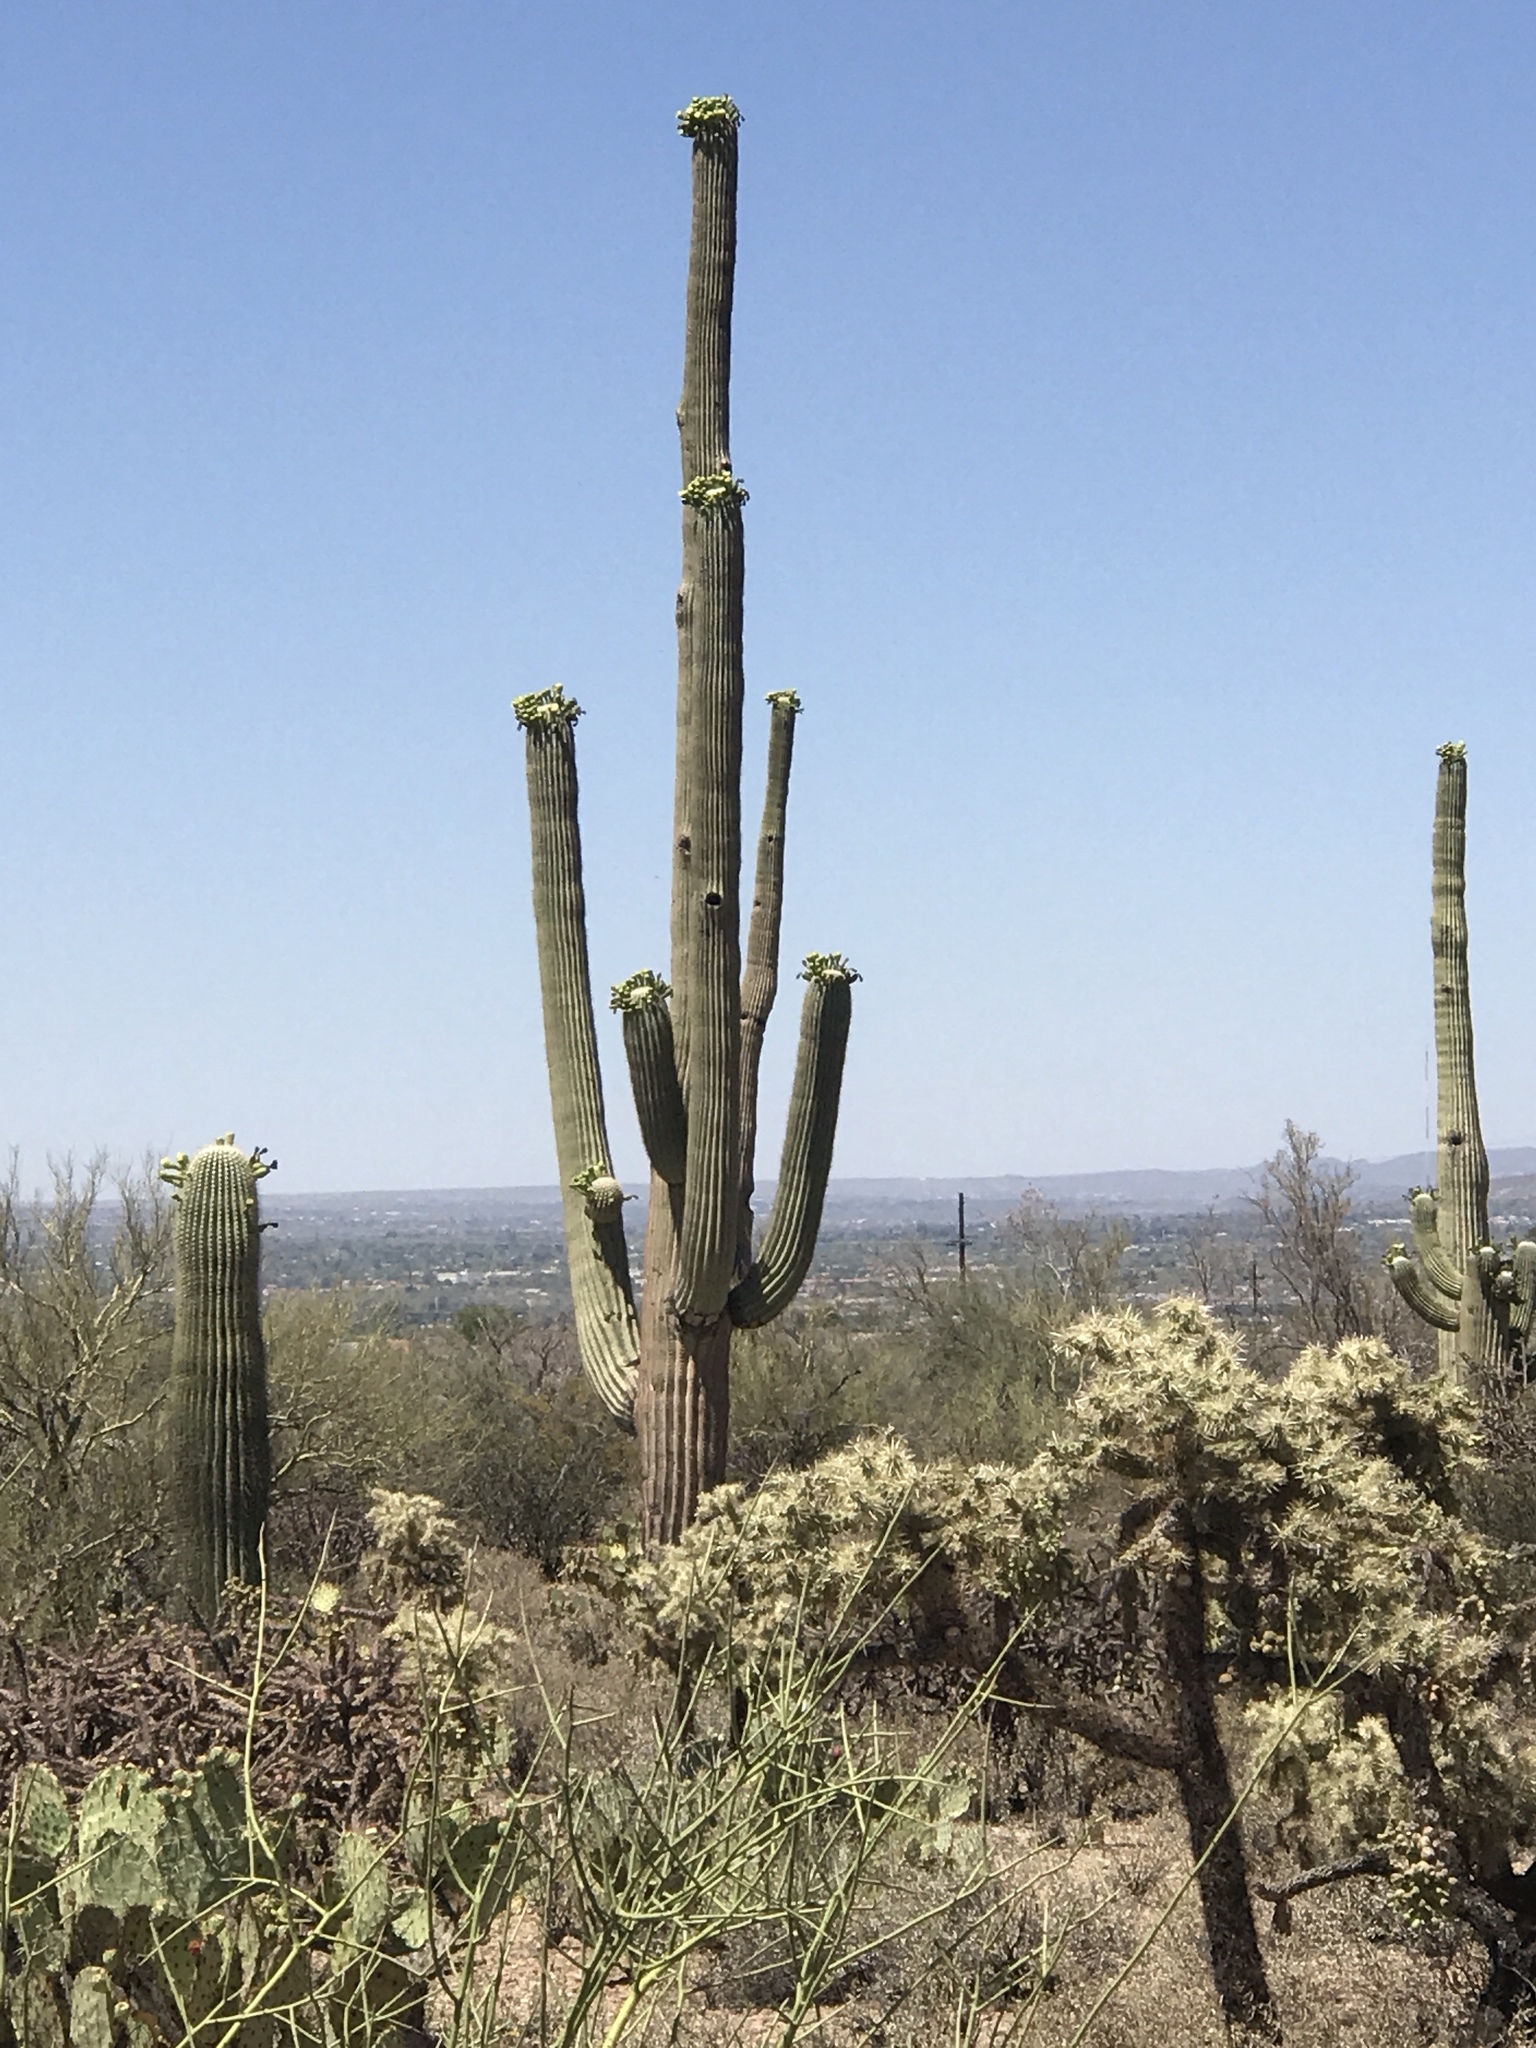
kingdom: Plantae
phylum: Tracheophyta
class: Magnoliopsida
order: Caryophyllales
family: Cactaceae
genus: Carnegiea
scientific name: Carnegiea gigantea
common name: Saguaro
